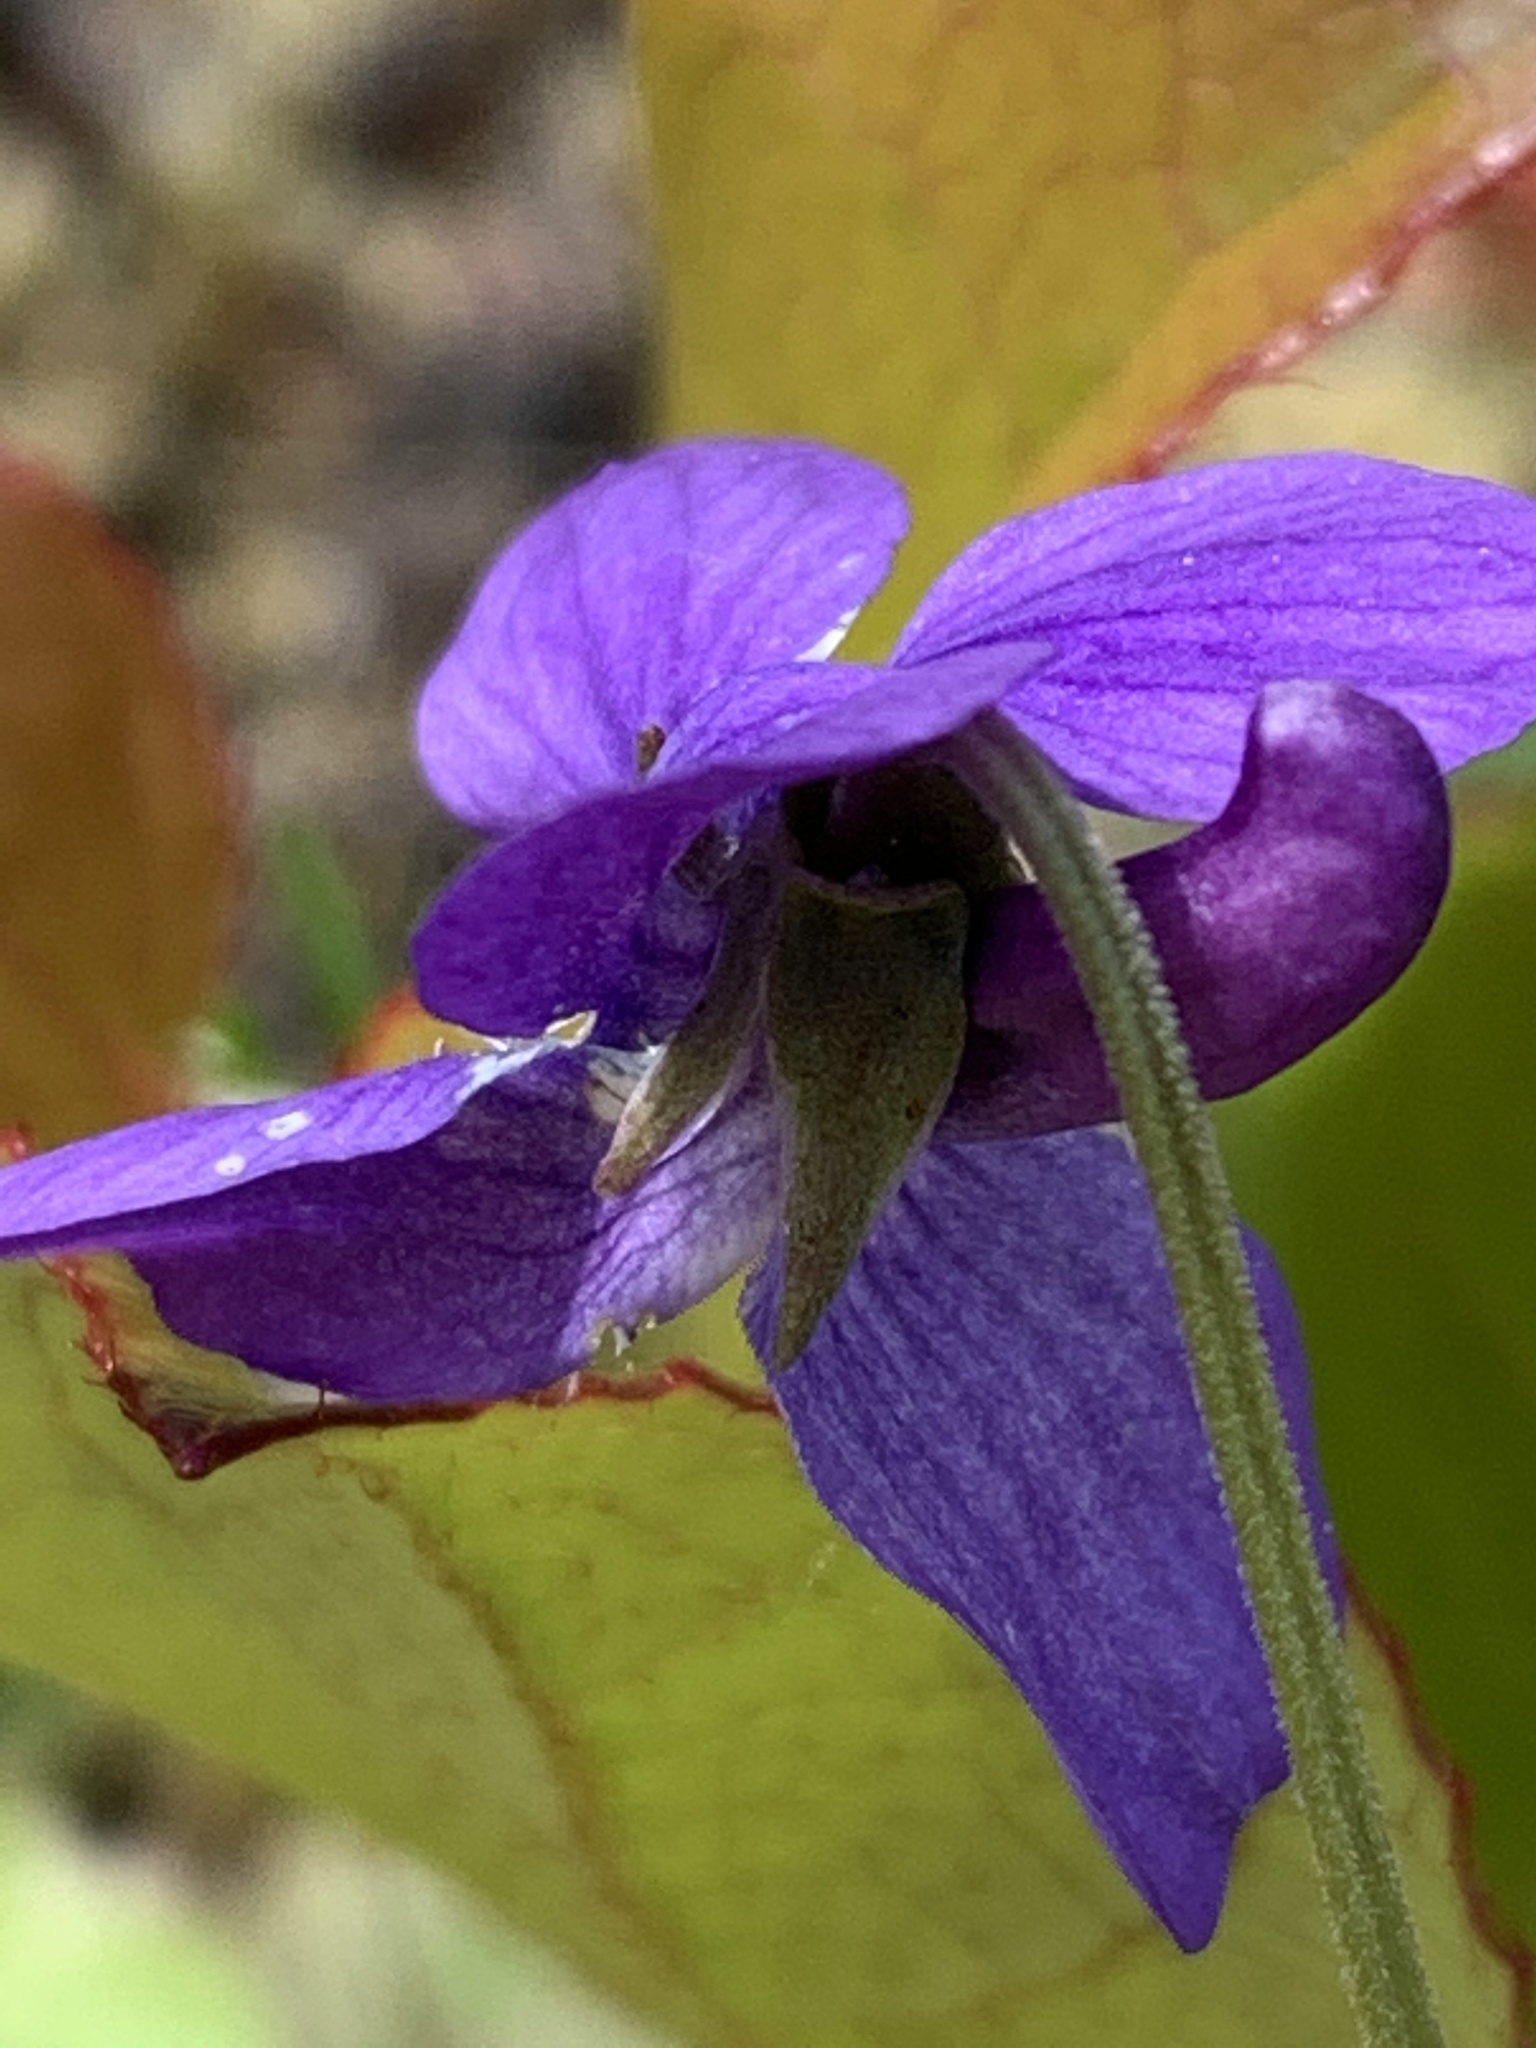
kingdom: Plantae
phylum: Tracheophyta
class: Magnoliopsida
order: Malpighiales
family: Violaceae
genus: Viola
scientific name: Viola adunca
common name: Sand violet
